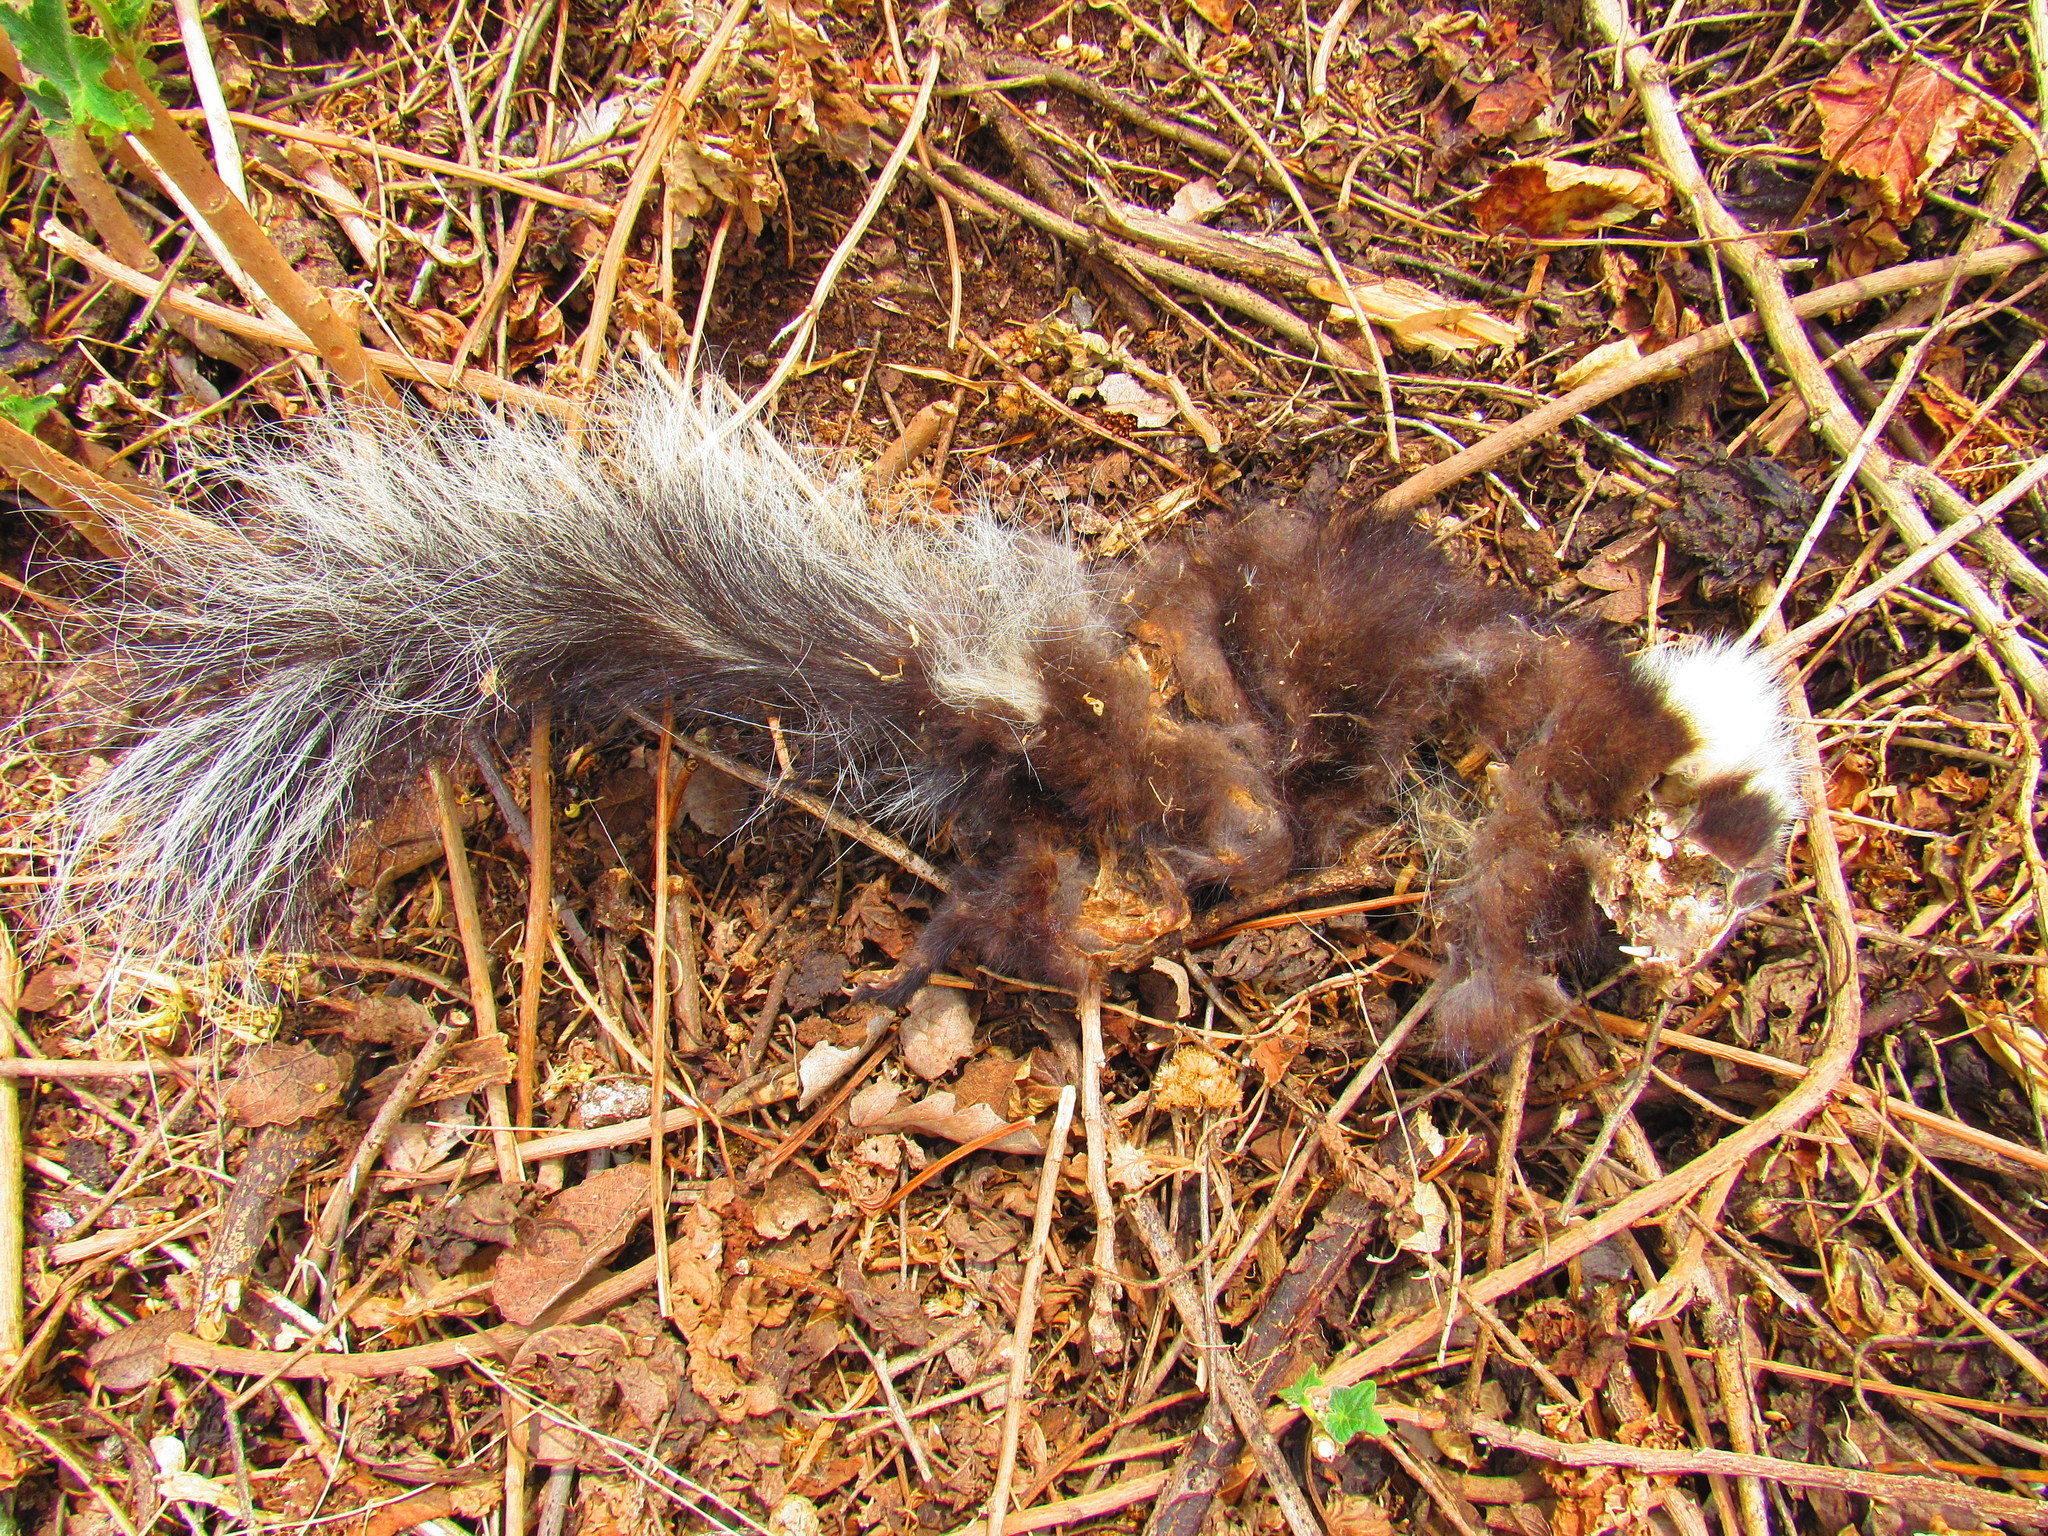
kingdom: Animalia
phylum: Chordata
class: Mammalia
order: Carnivora
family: Mephitidae
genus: Mephitis
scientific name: Mephitis macroura
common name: Hooded skunk
